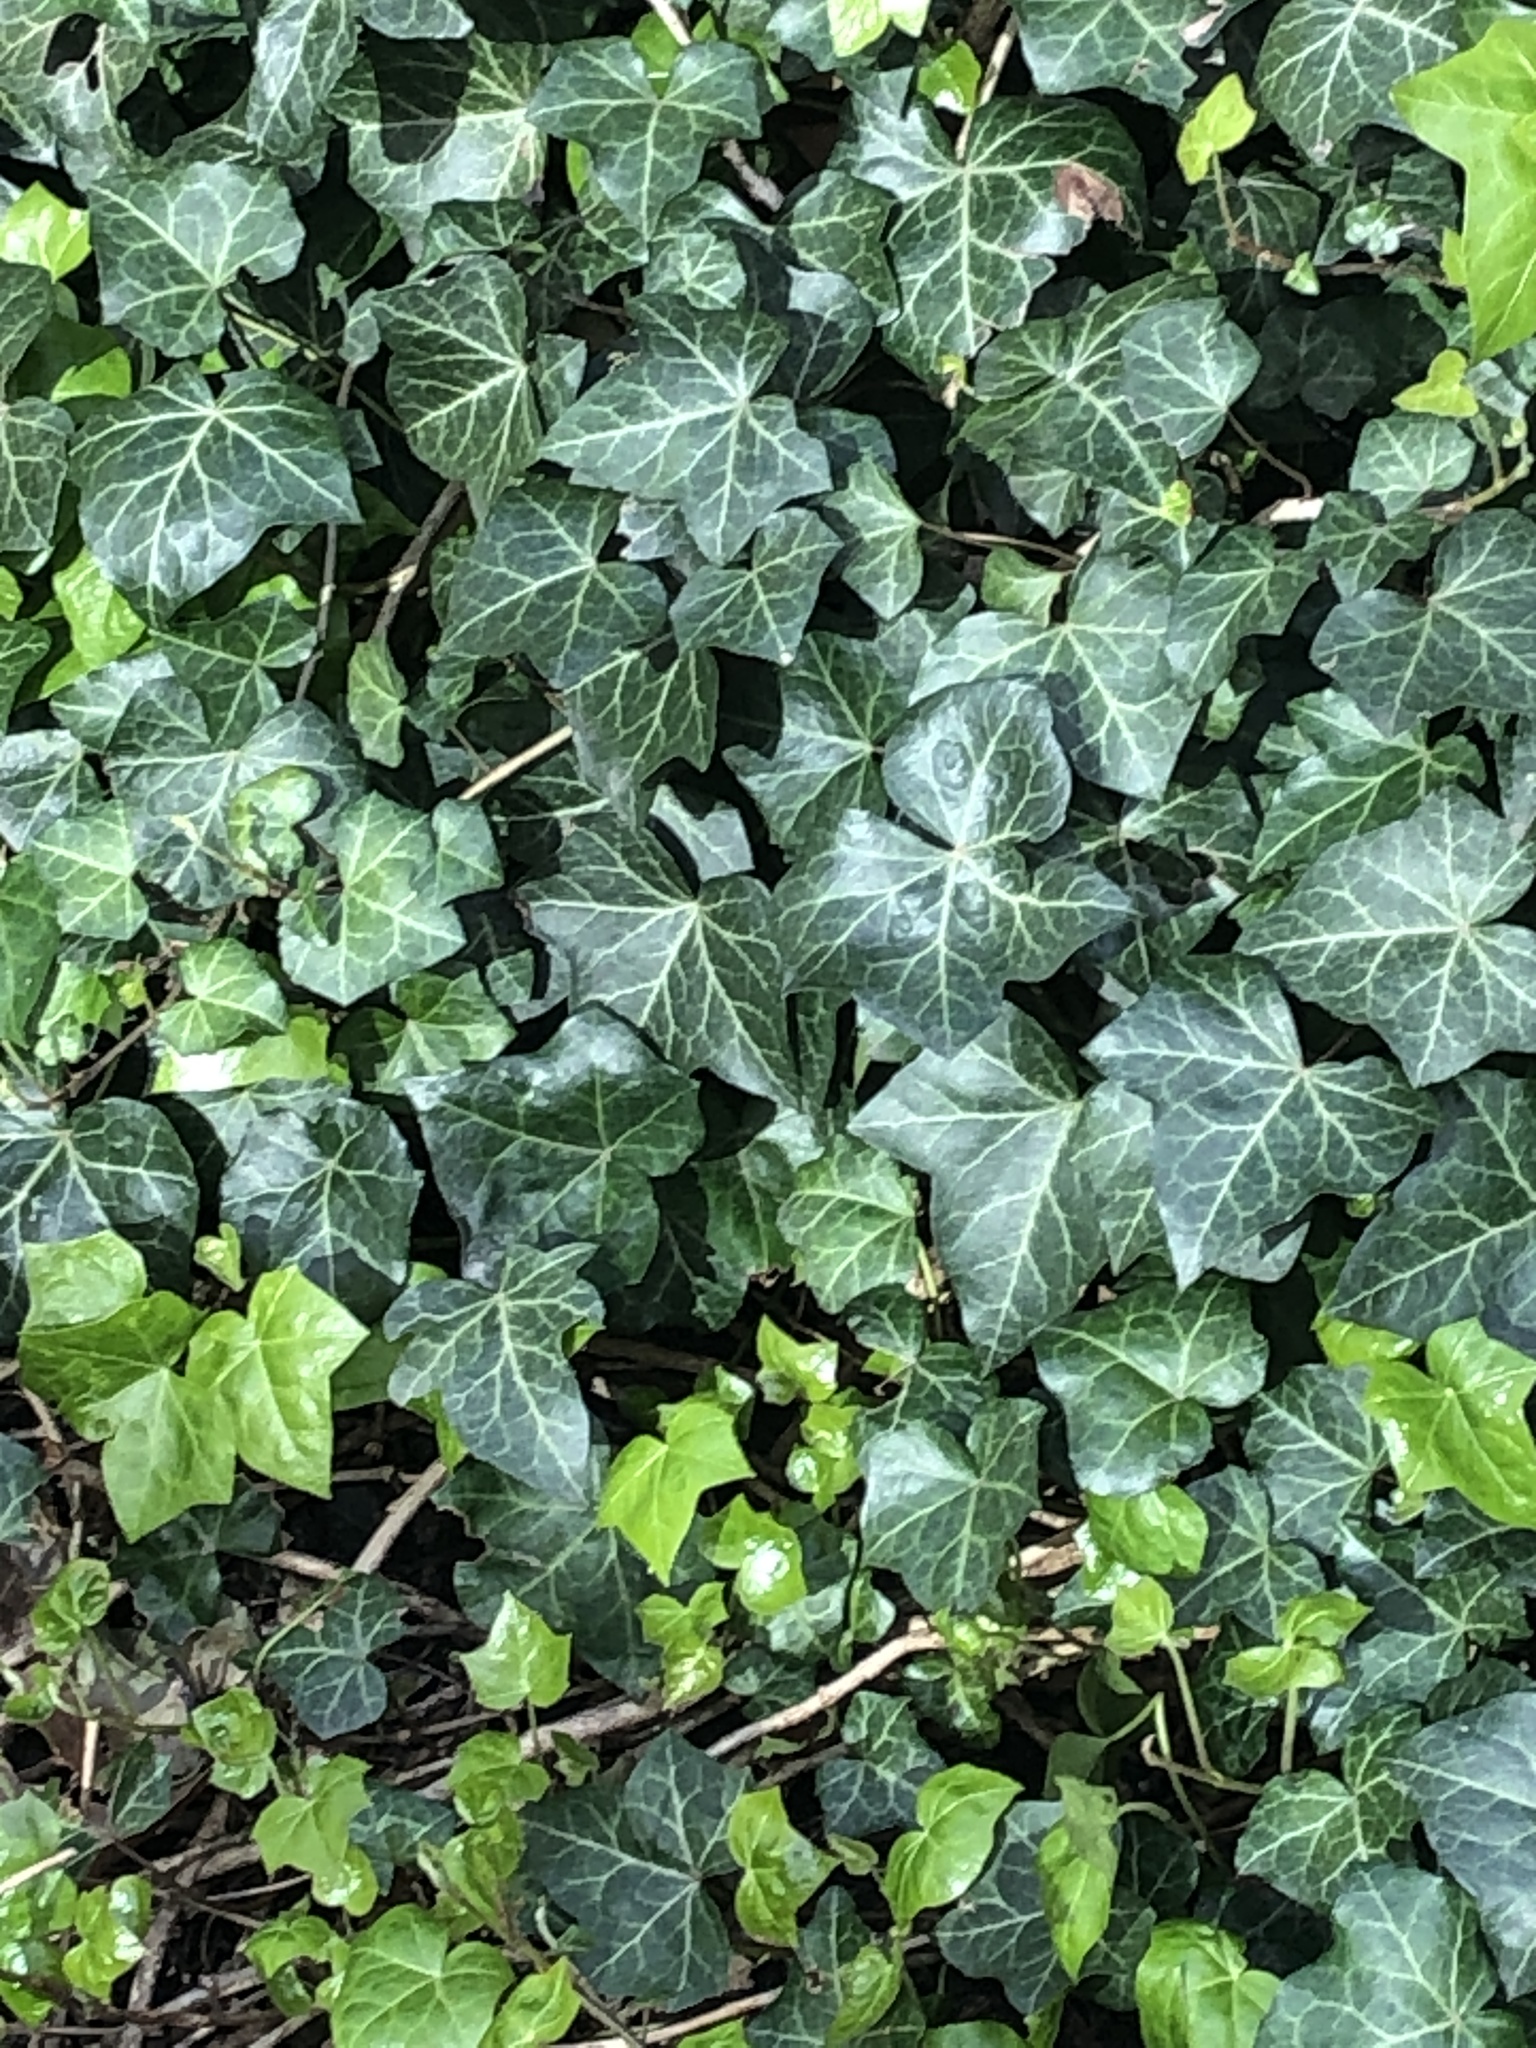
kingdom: Plantae
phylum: Tracheophyta
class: Magnoliopsida
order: Apiales
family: Araliaceae
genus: Hedera
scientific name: Hedera helix
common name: Ivy
